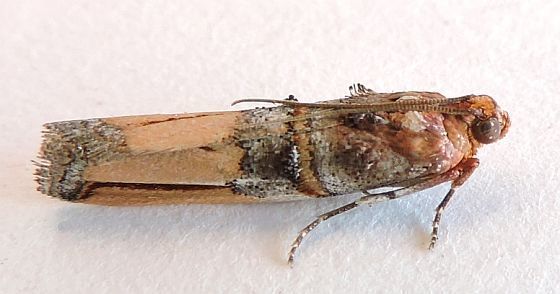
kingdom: Animalia
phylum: Arthropoda
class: Insecta
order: Lepidoptera
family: Pyralidae
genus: Dasypyga
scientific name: Dasypyga alternosquamella
